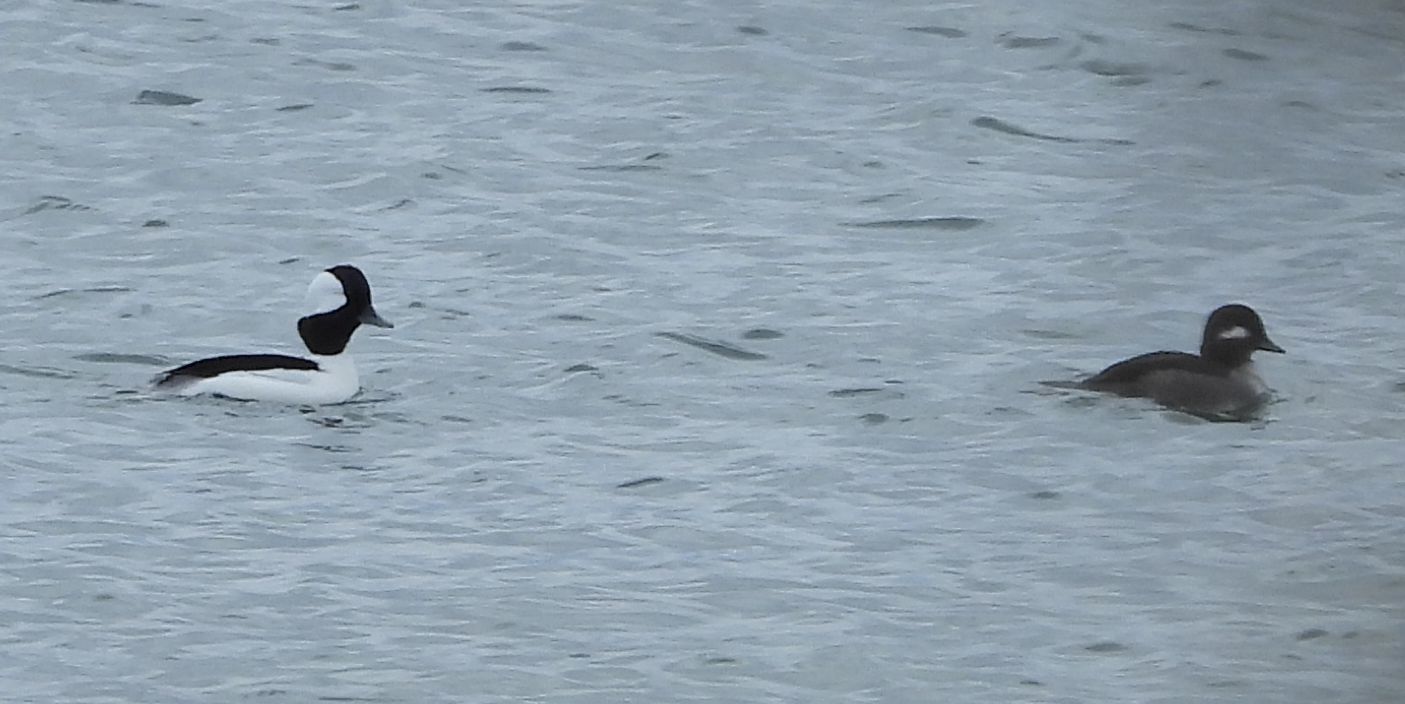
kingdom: Animalia
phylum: Chordata
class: Aves
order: Anseriformes
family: Anatidae
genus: Bucephala
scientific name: Bucephala albeola
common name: Bufflehead
